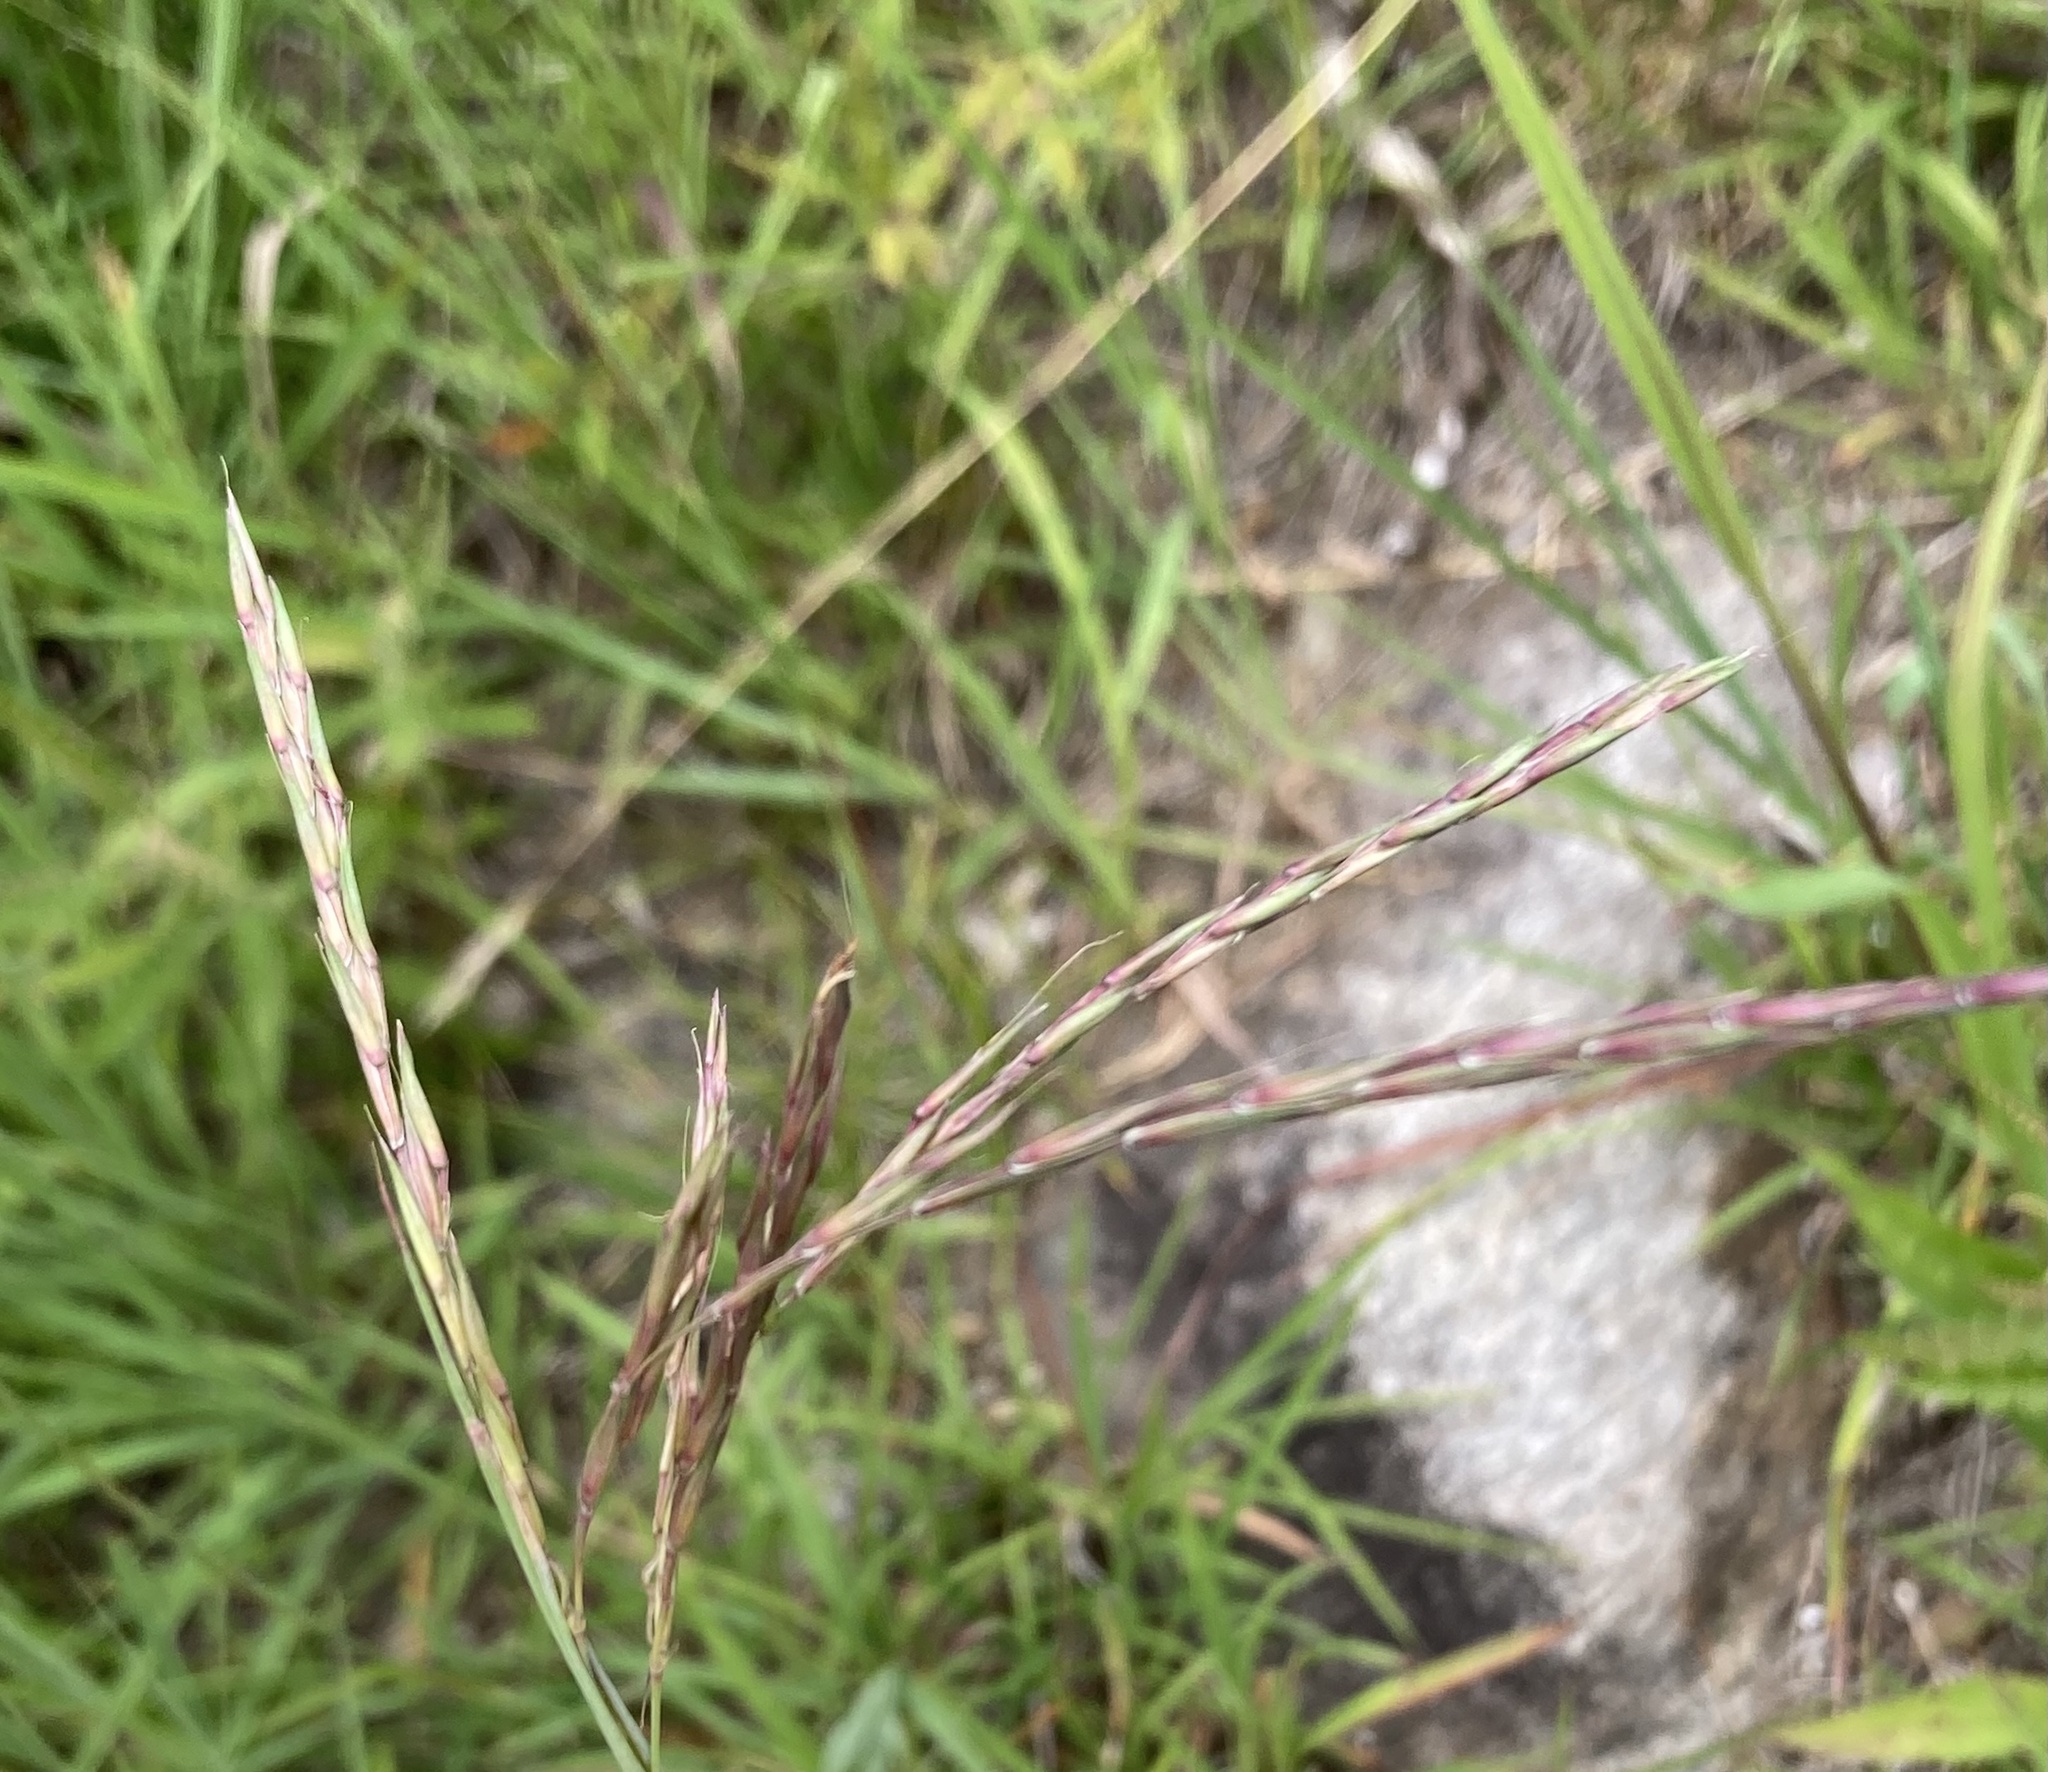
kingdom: Plantae
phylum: Tracheophyta
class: Liliopsida
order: Poales
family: Poaceae
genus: Andropogon
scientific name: Andropogon gerardi
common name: Big bluestem
